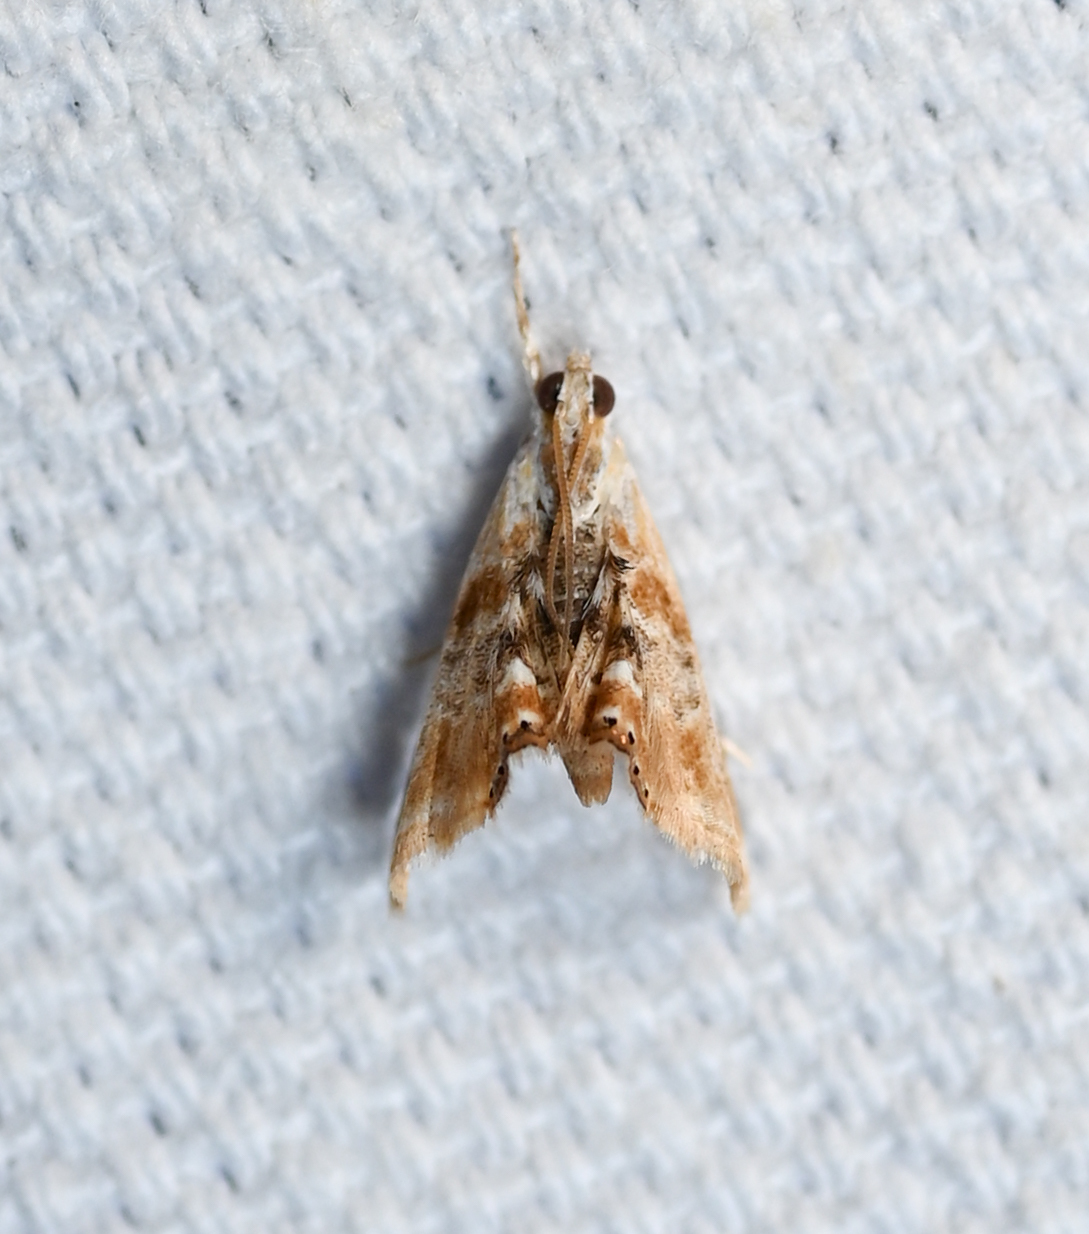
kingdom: Animalia
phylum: Arthropoda
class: Insecta
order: Lepidoptera
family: Crambidae
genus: Dicymolomia
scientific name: Dicymolomia julianalis
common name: Julia's dicymolomia moth
